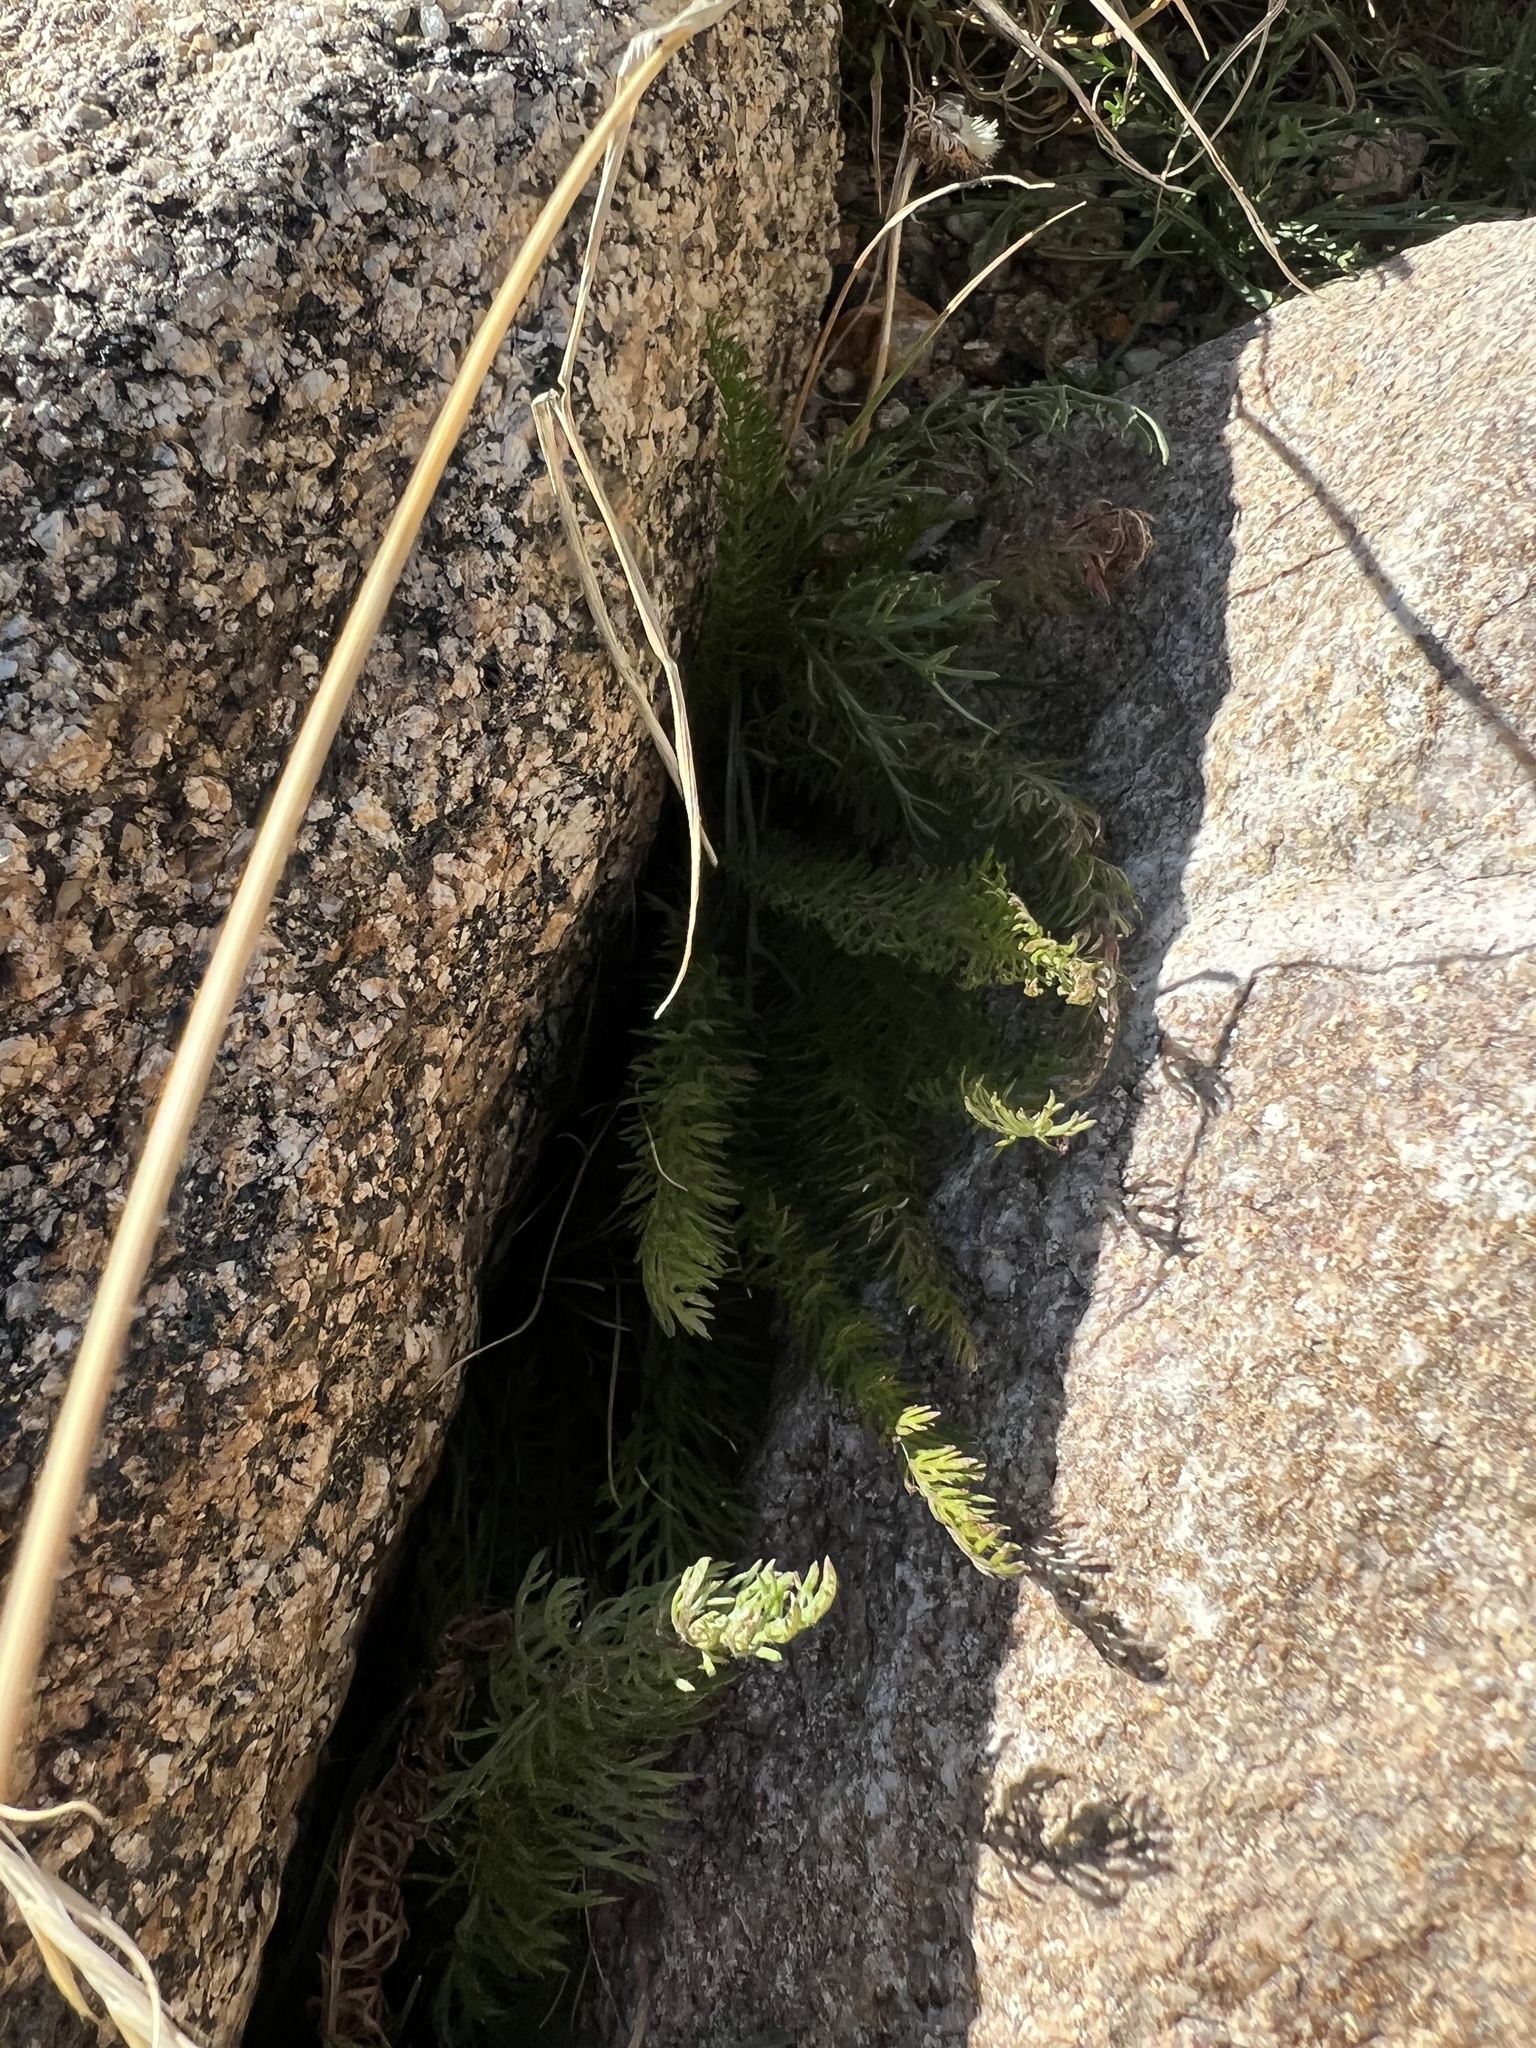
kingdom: Plantae
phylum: Tracheophyta
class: Magnoliopsida
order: Asterales
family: Asteraceae
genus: Achillea
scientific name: Achillea millefolium
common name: Yarrow
